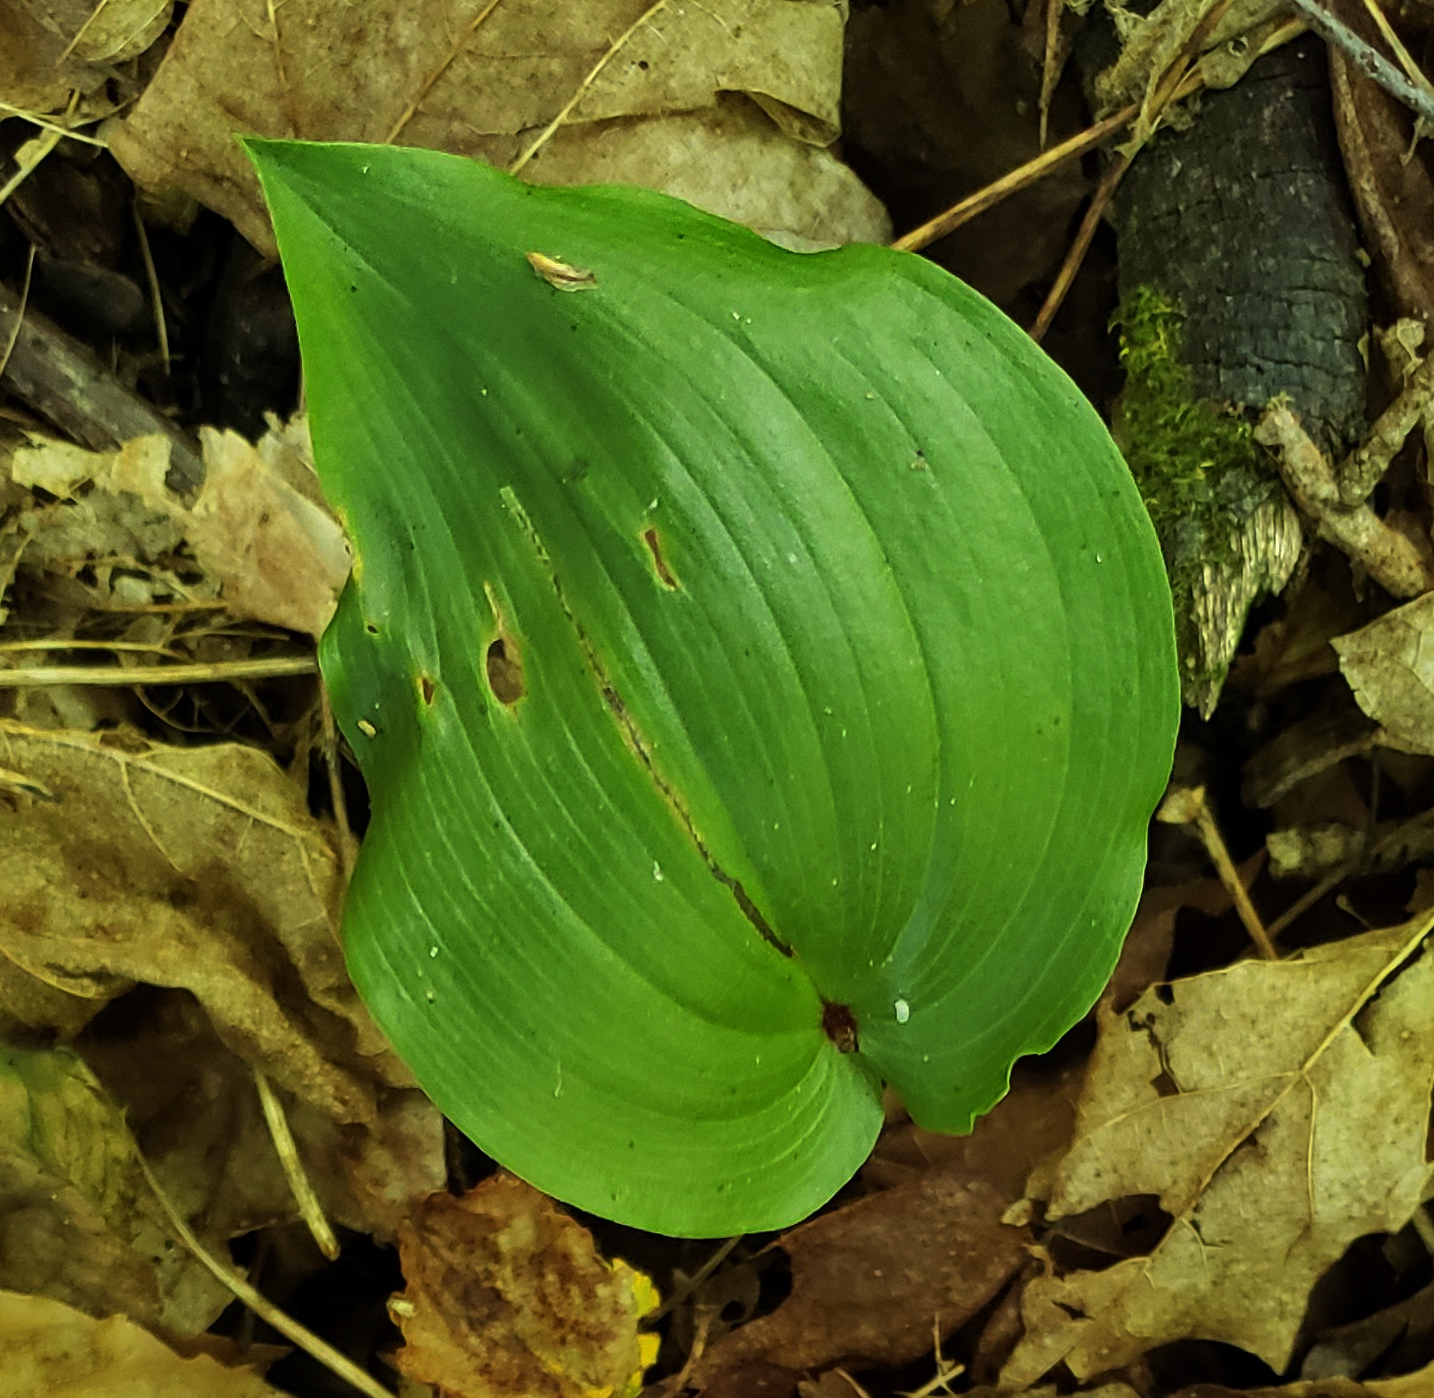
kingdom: Plantae
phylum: Tracheophyta
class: Liliopsida
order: Asparagales
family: Asparagaceae
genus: Maianthemum
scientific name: Maianthemum canadense
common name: False lily-of-the-valley
